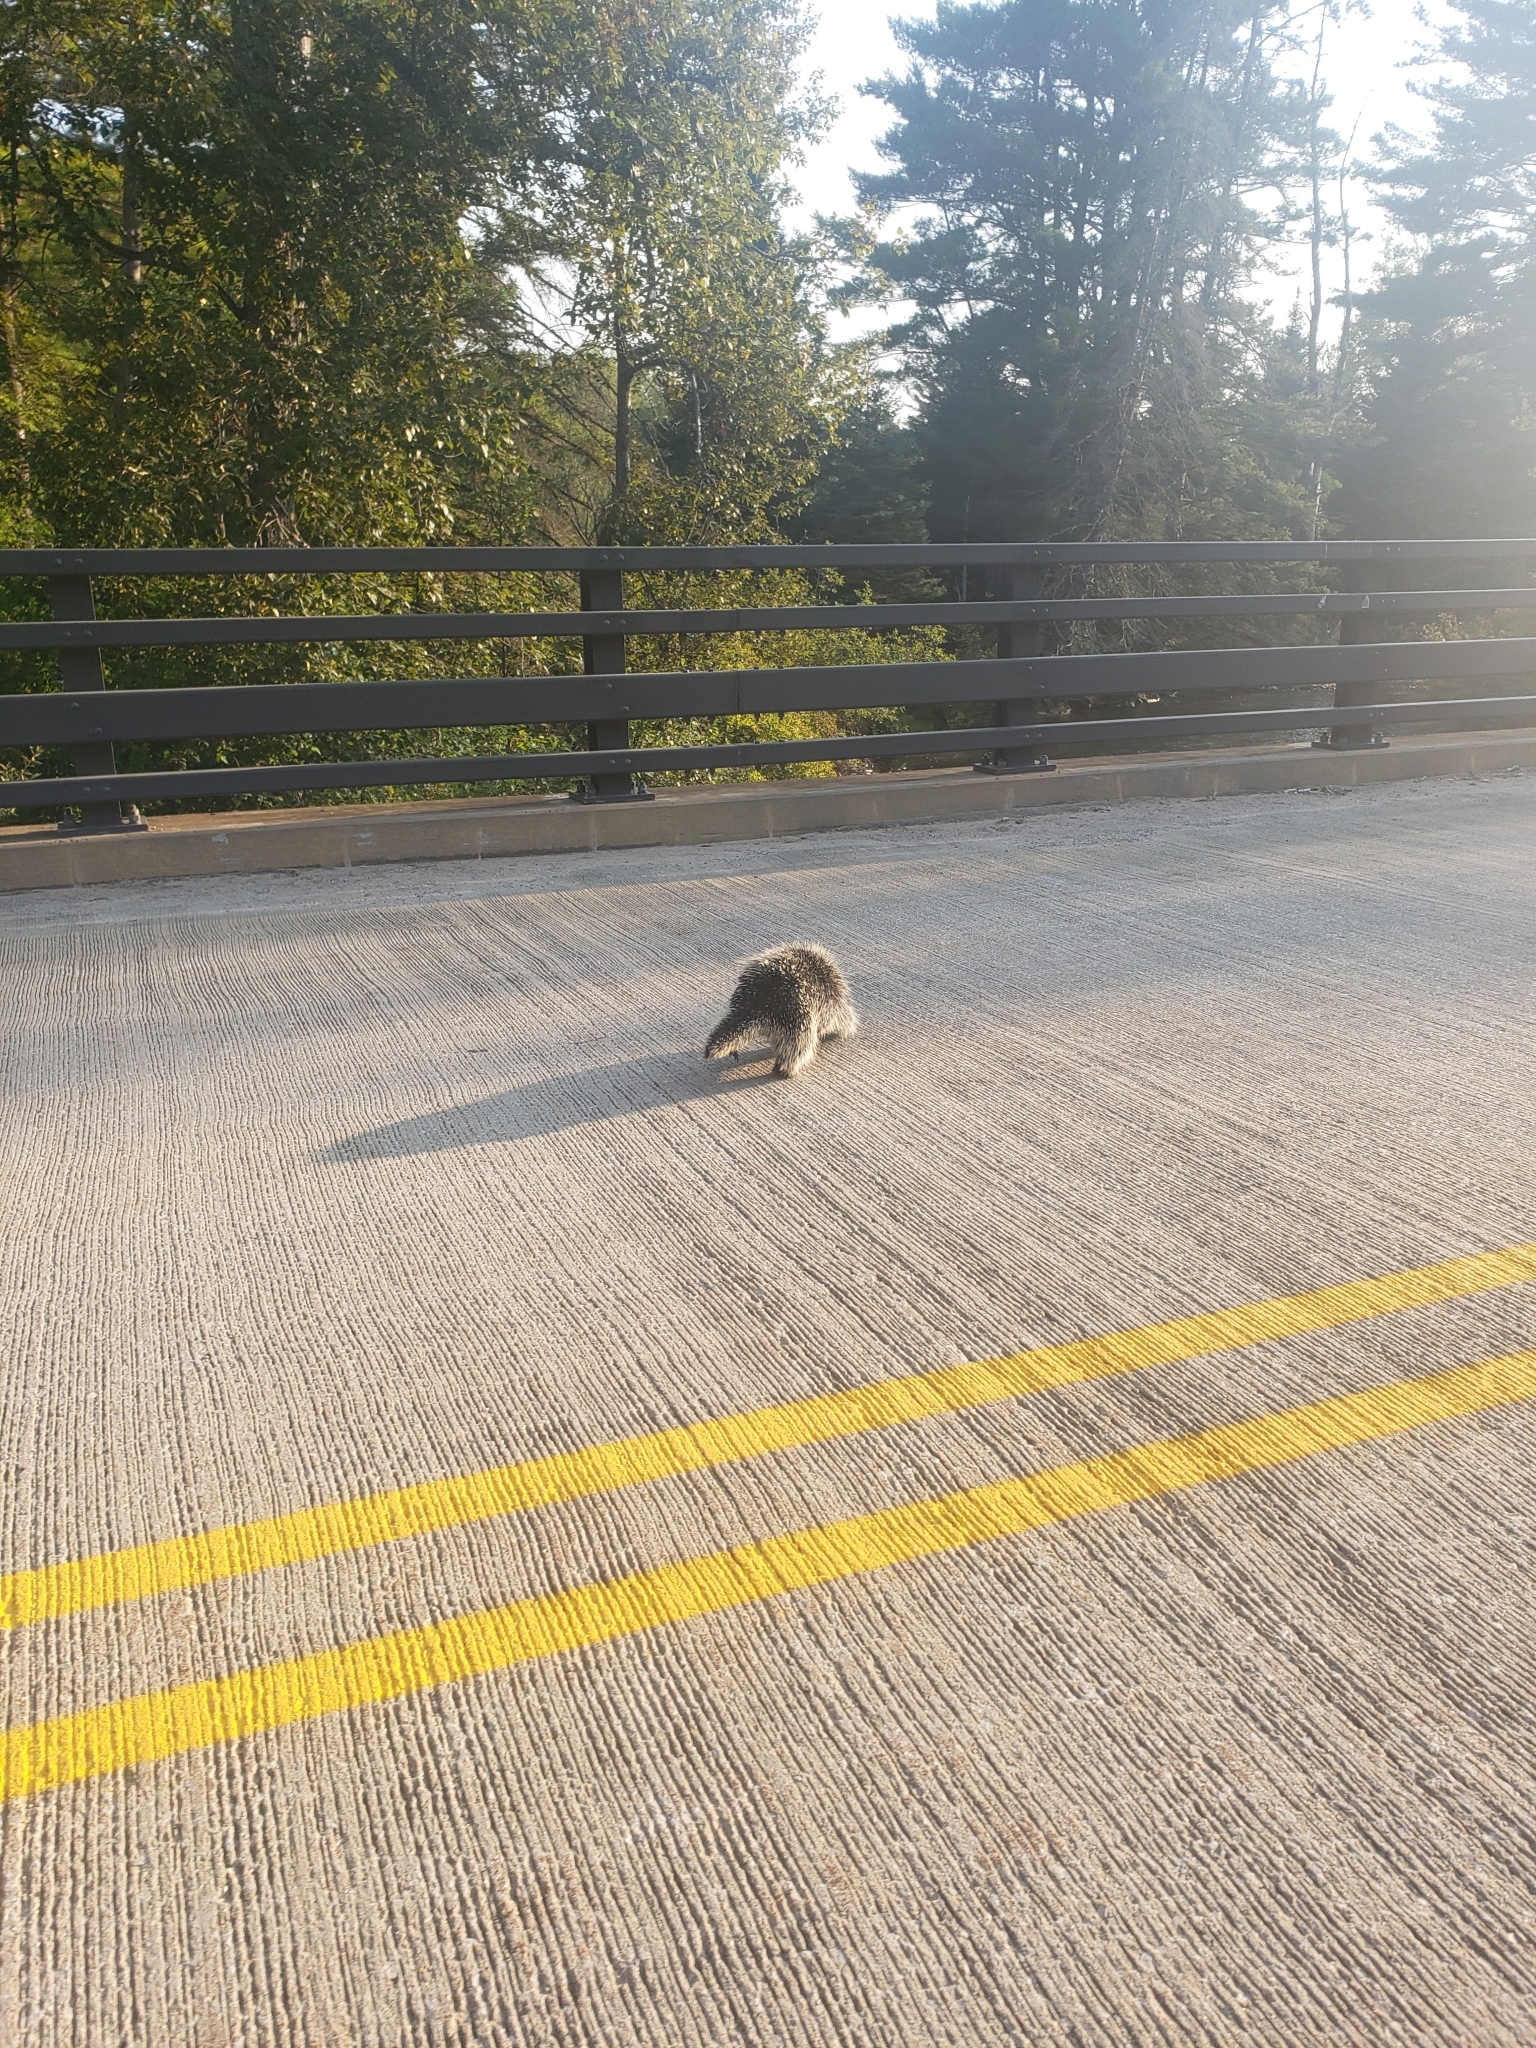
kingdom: Animalia
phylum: Chordata
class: Mammalia
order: Rodentia
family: Erethizontidae
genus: Erethizon
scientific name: Erethizon dorsatus
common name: North american porcupine
